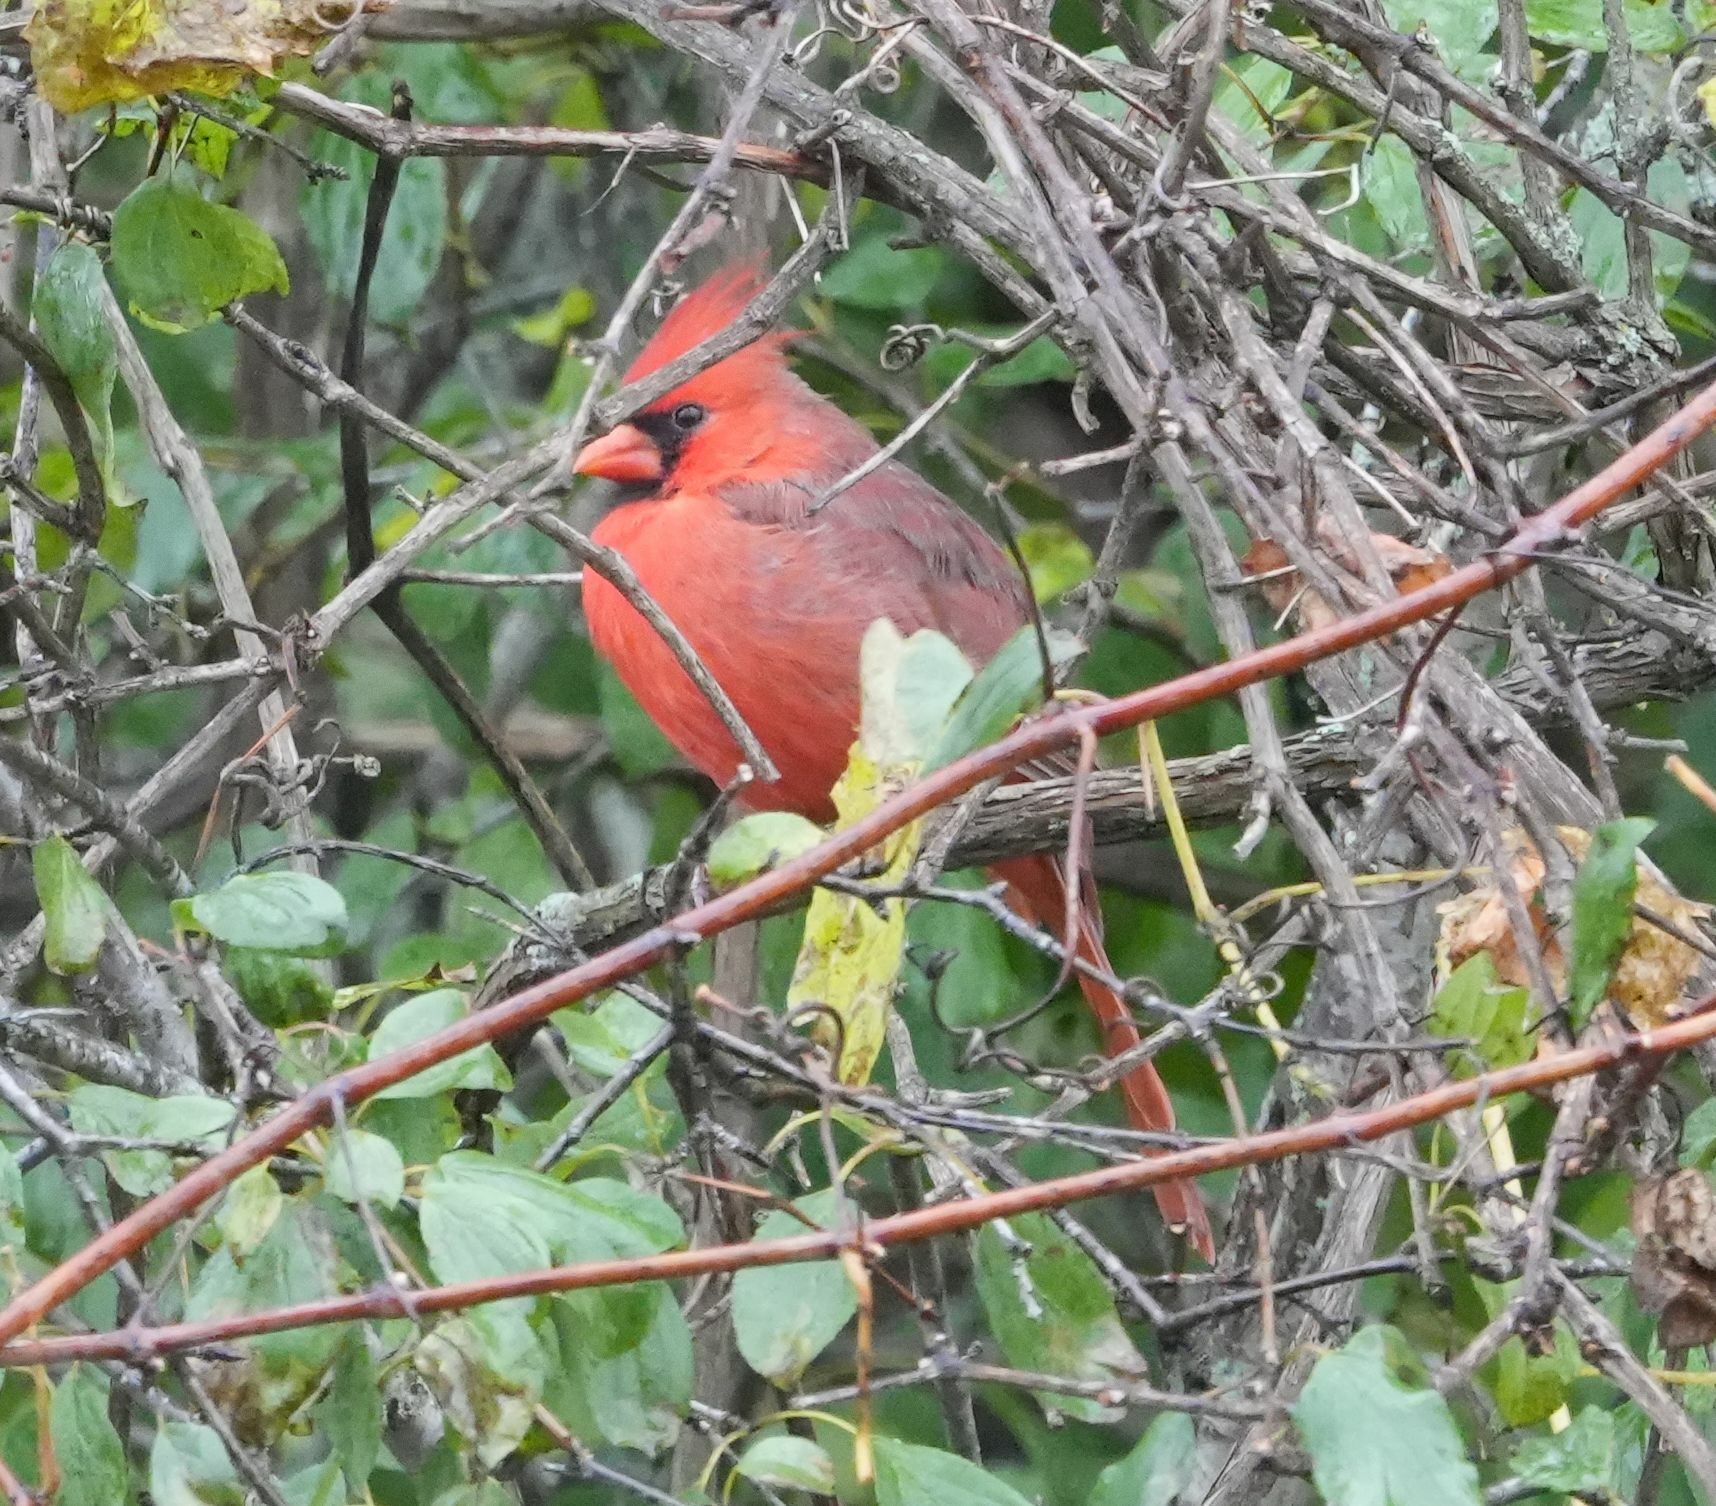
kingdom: Animalia
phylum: Chordata
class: Aves
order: Passeriformes
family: Cardinalidae
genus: Cardinalis
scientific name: Cardinalis cardinalis
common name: Northern cardinal
